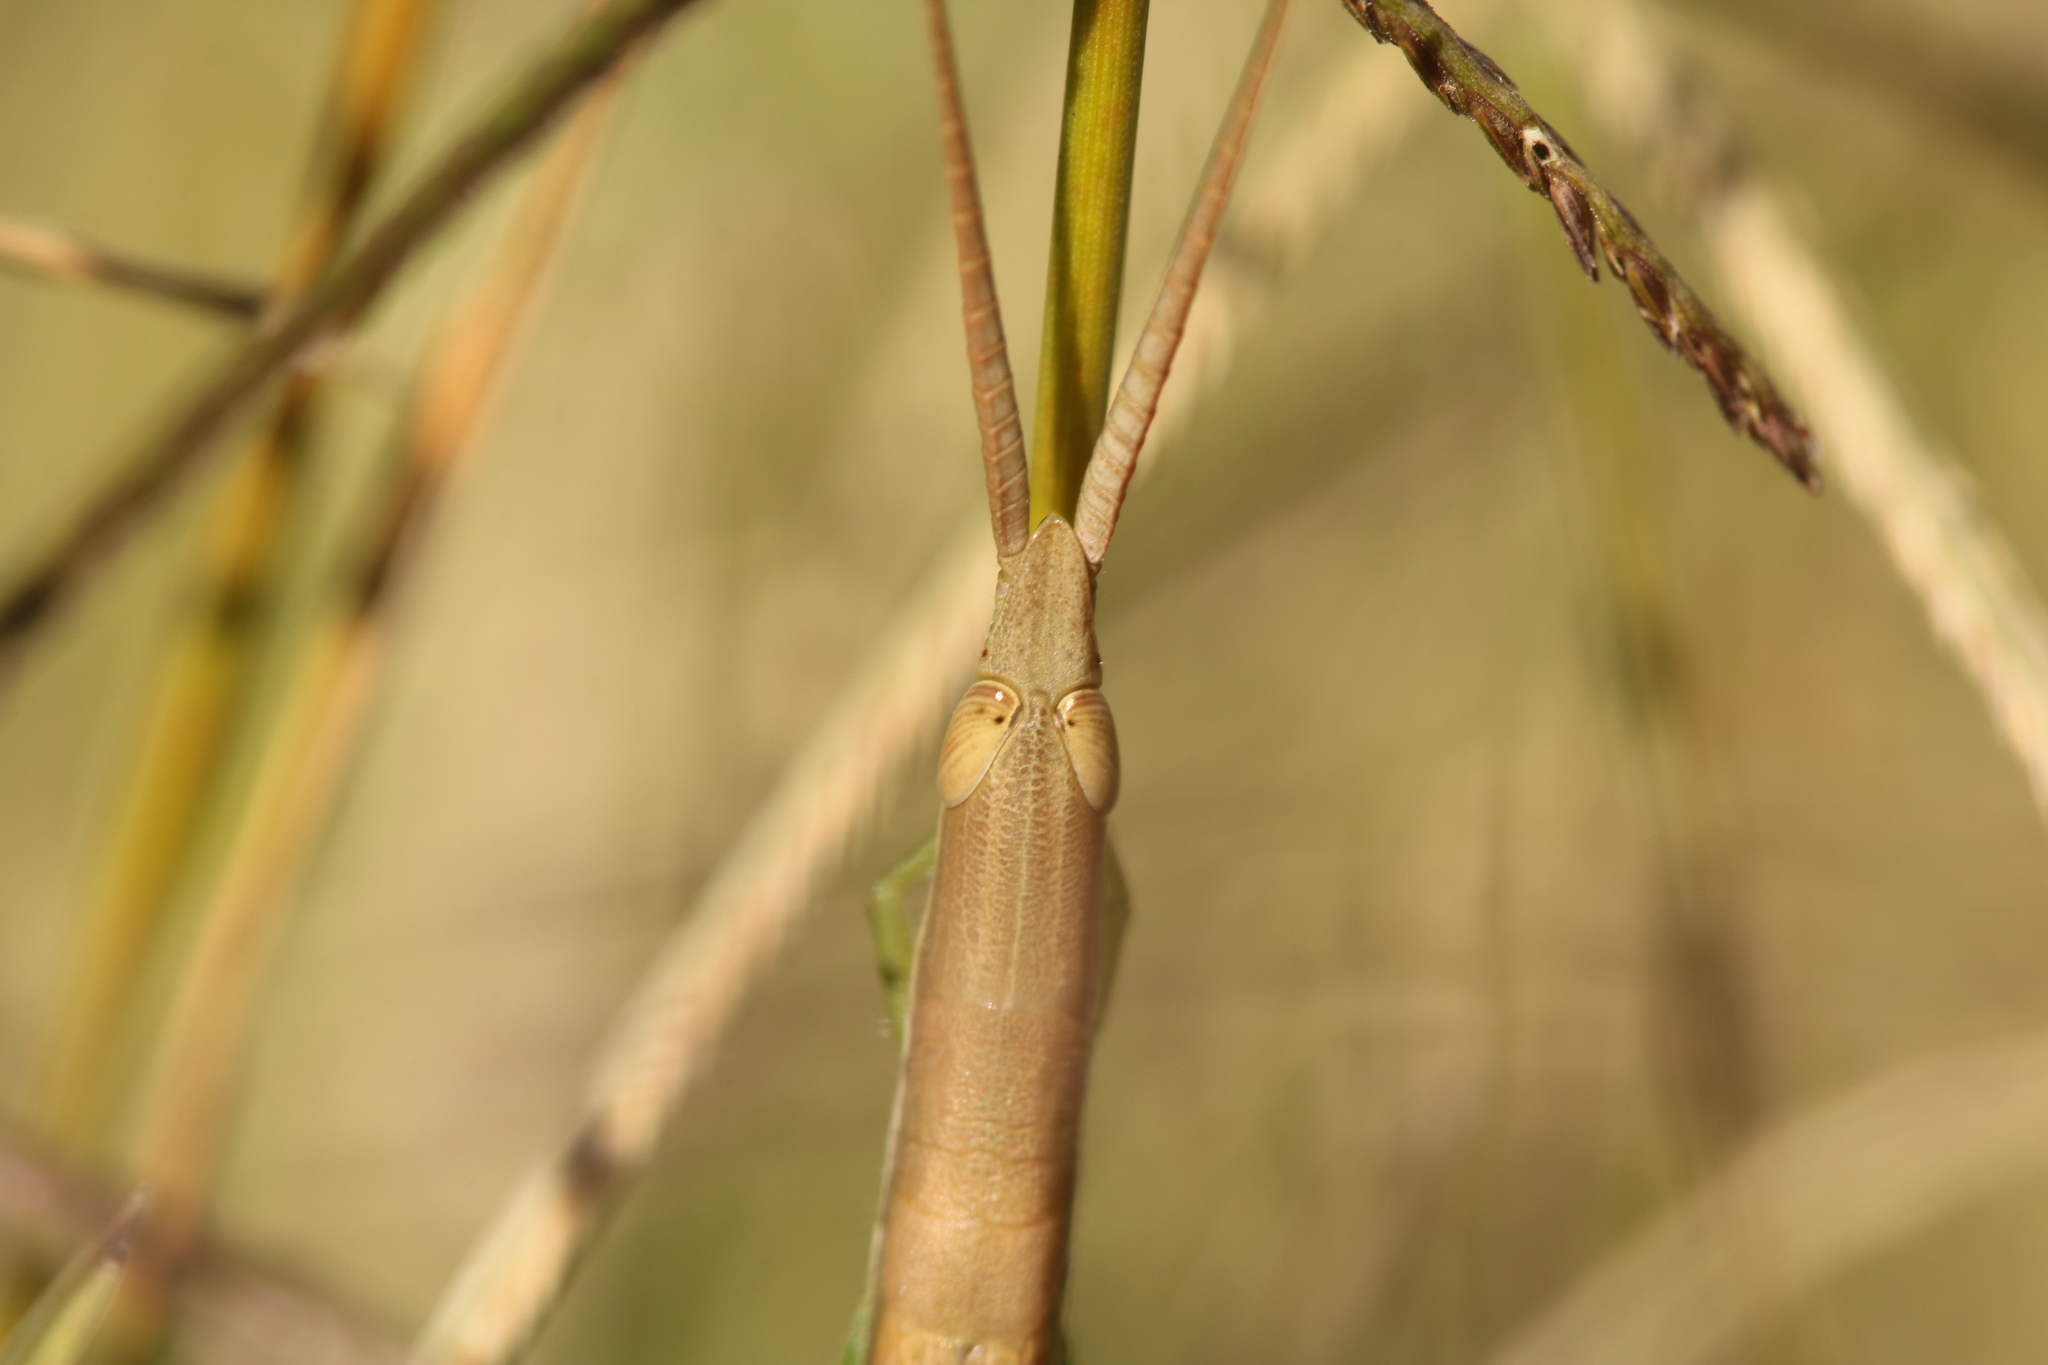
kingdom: Animalia
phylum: Arthropoda
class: Insecta
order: Orthoptera
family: Acrididae
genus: Leptysma
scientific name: Leptysma argentina
